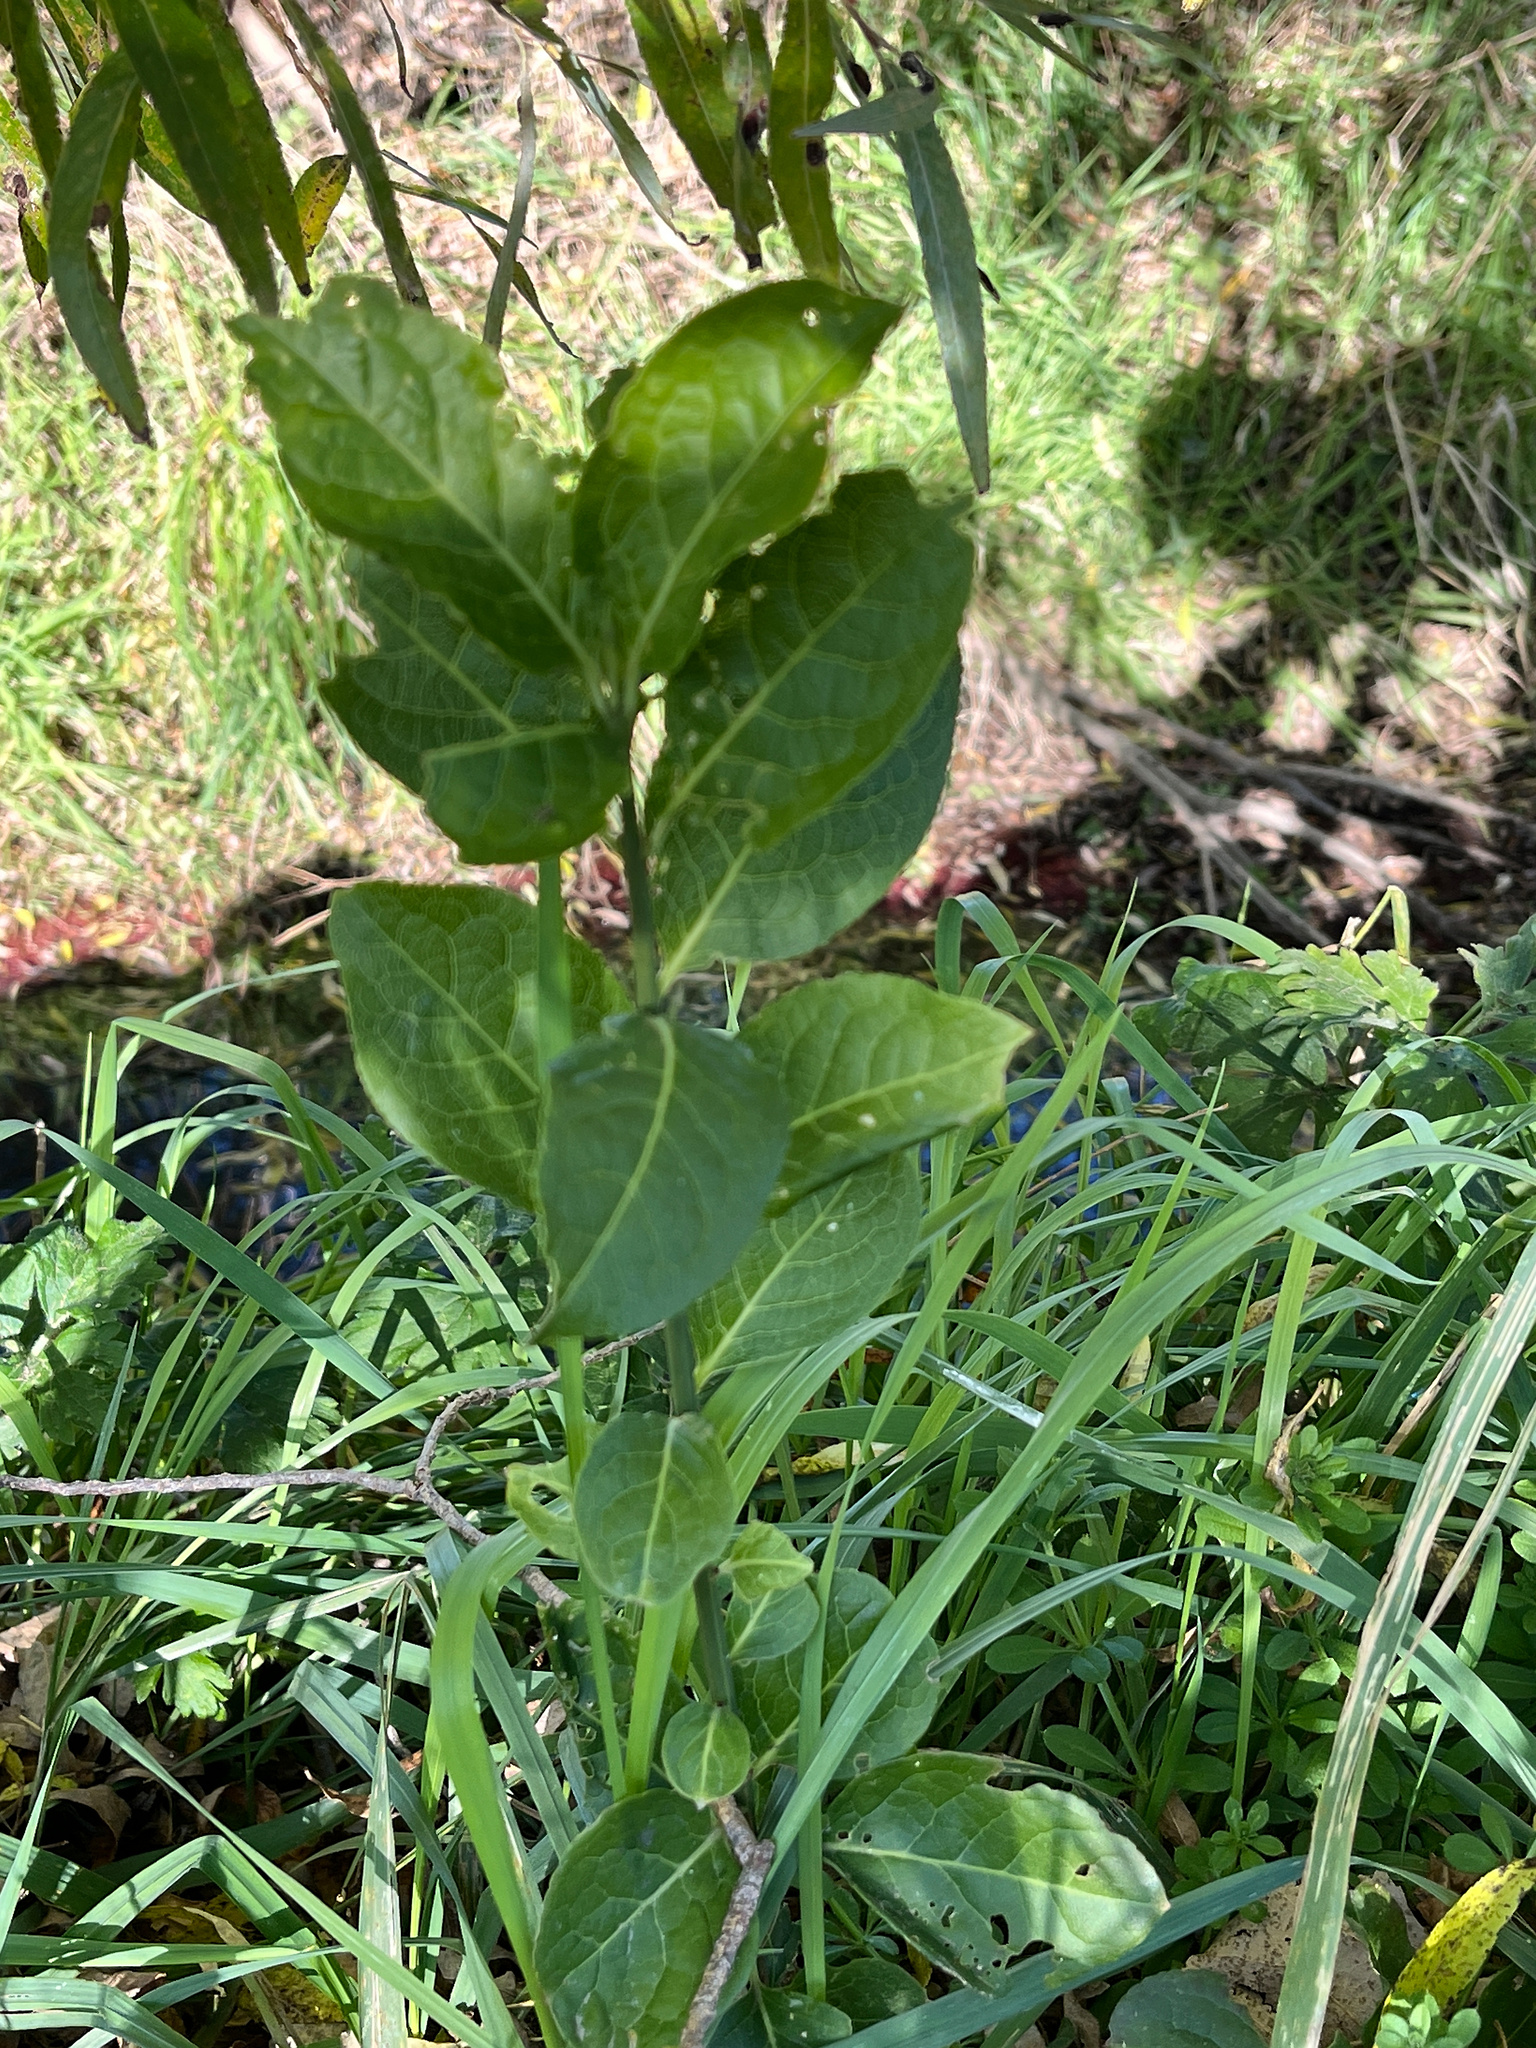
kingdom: Plantae
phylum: Tracheophyta
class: Magnoliopsida
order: Celastrales
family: Celastraceae
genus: Euonymus
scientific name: Euonymus europaeus
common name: Spindle
